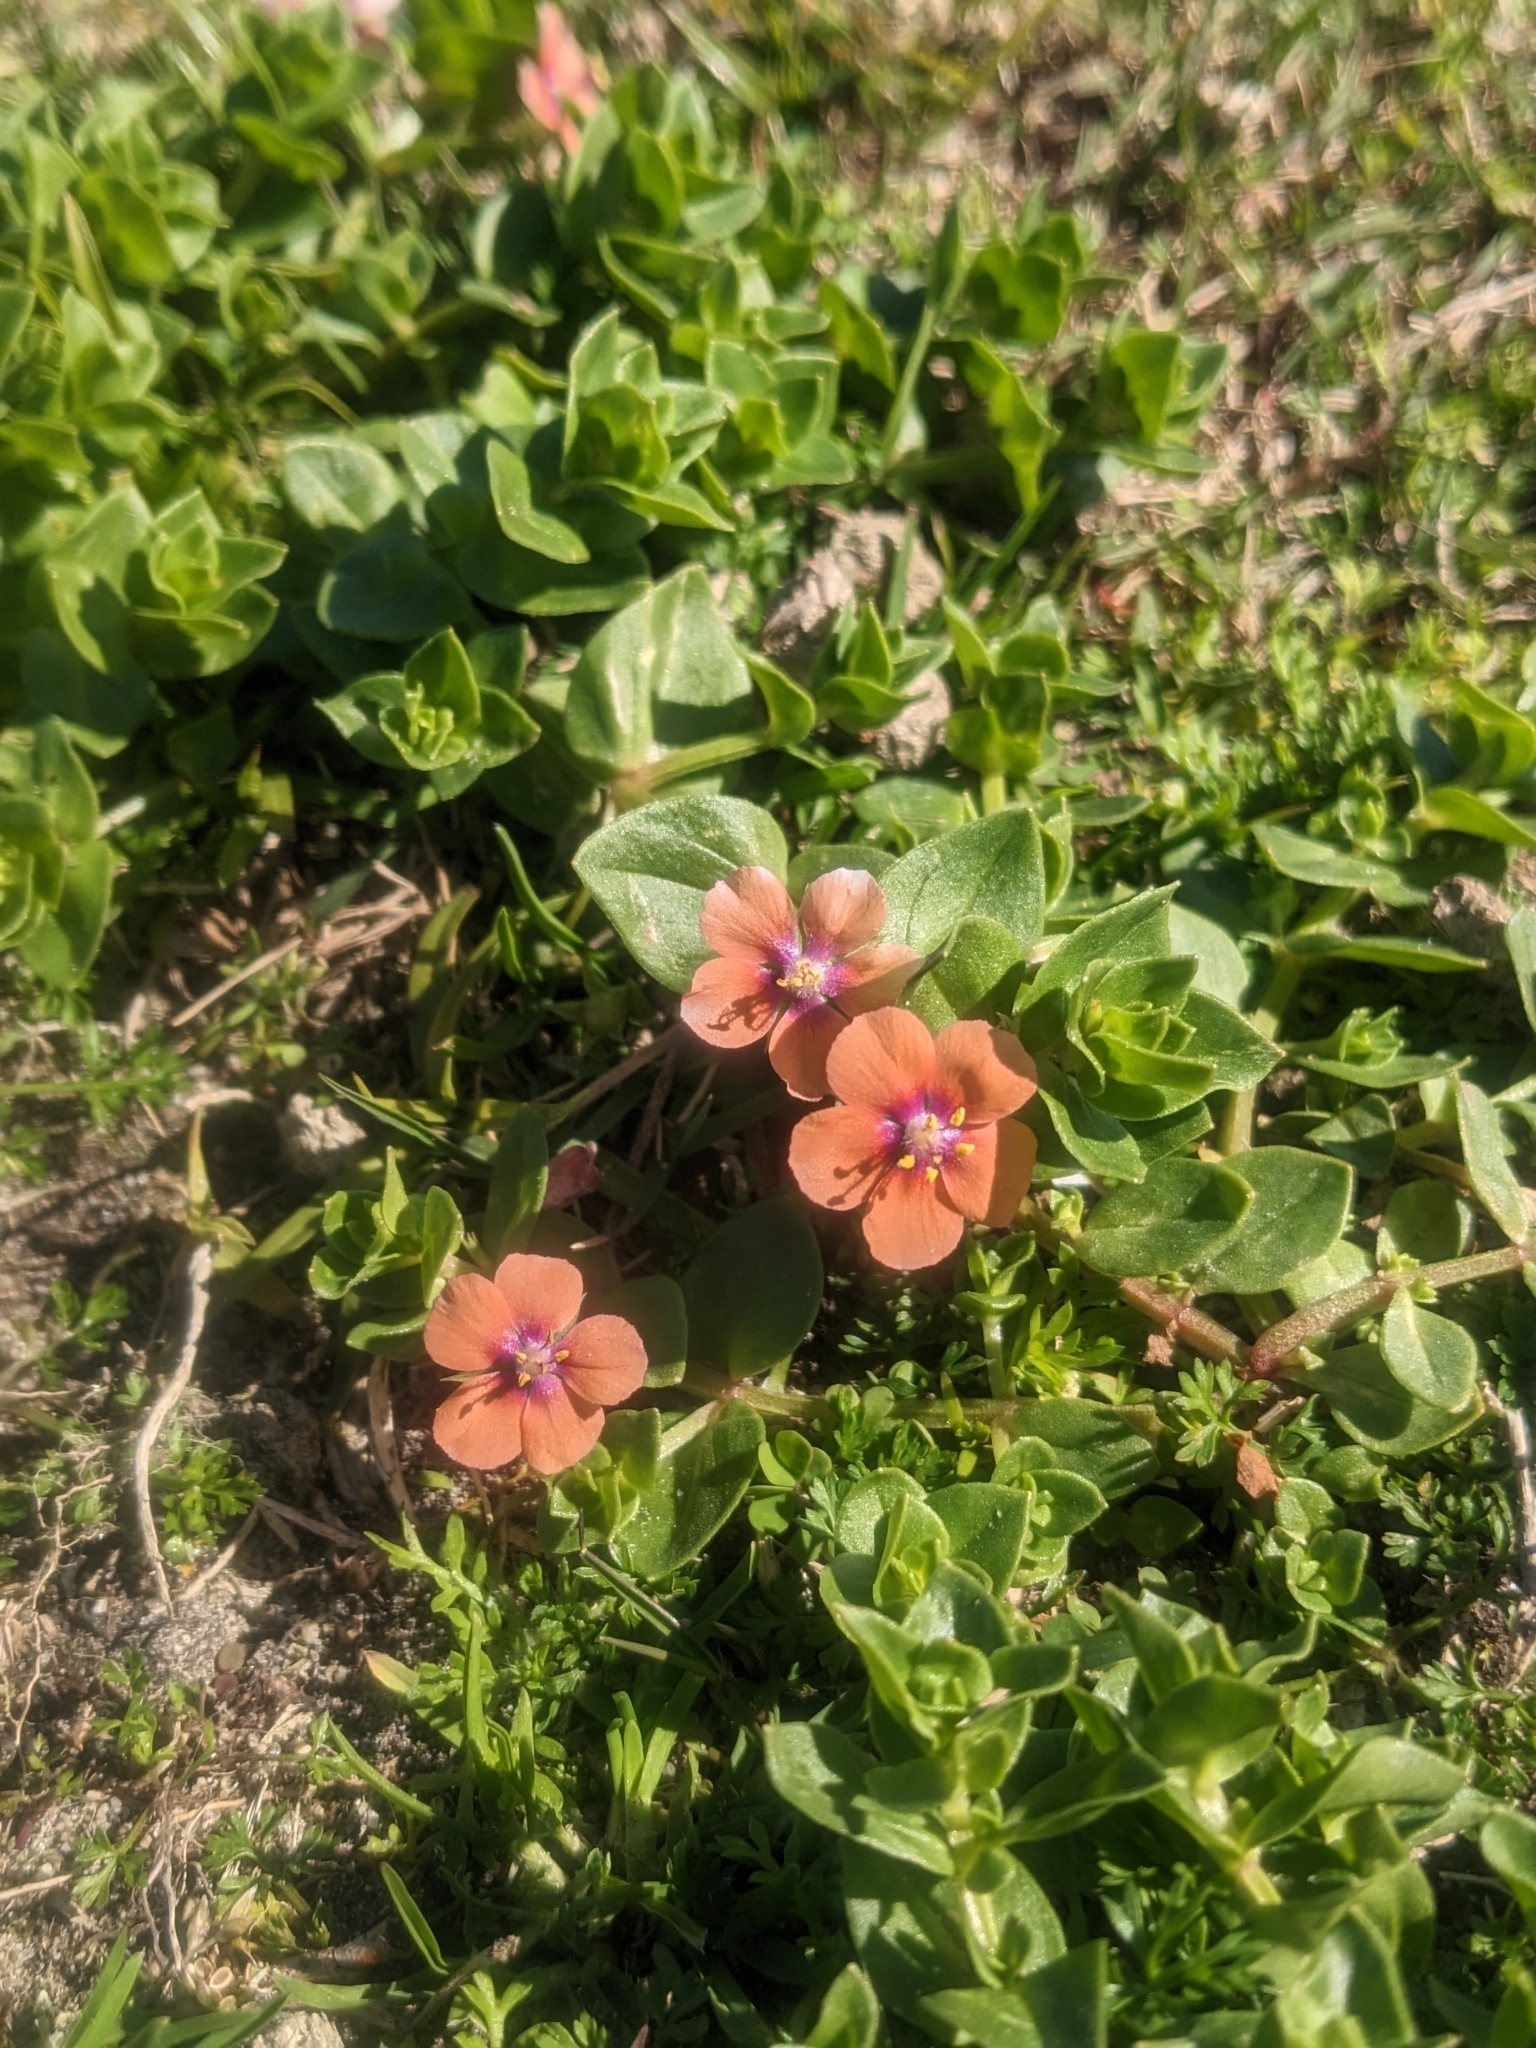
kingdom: Plantae
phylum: Tracheophyta
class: Magnoliopsida
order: Ericales
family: Primulaceae
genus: Lysimachia
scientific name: Lysimachia arvensis
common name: Scarlet pimpernel
